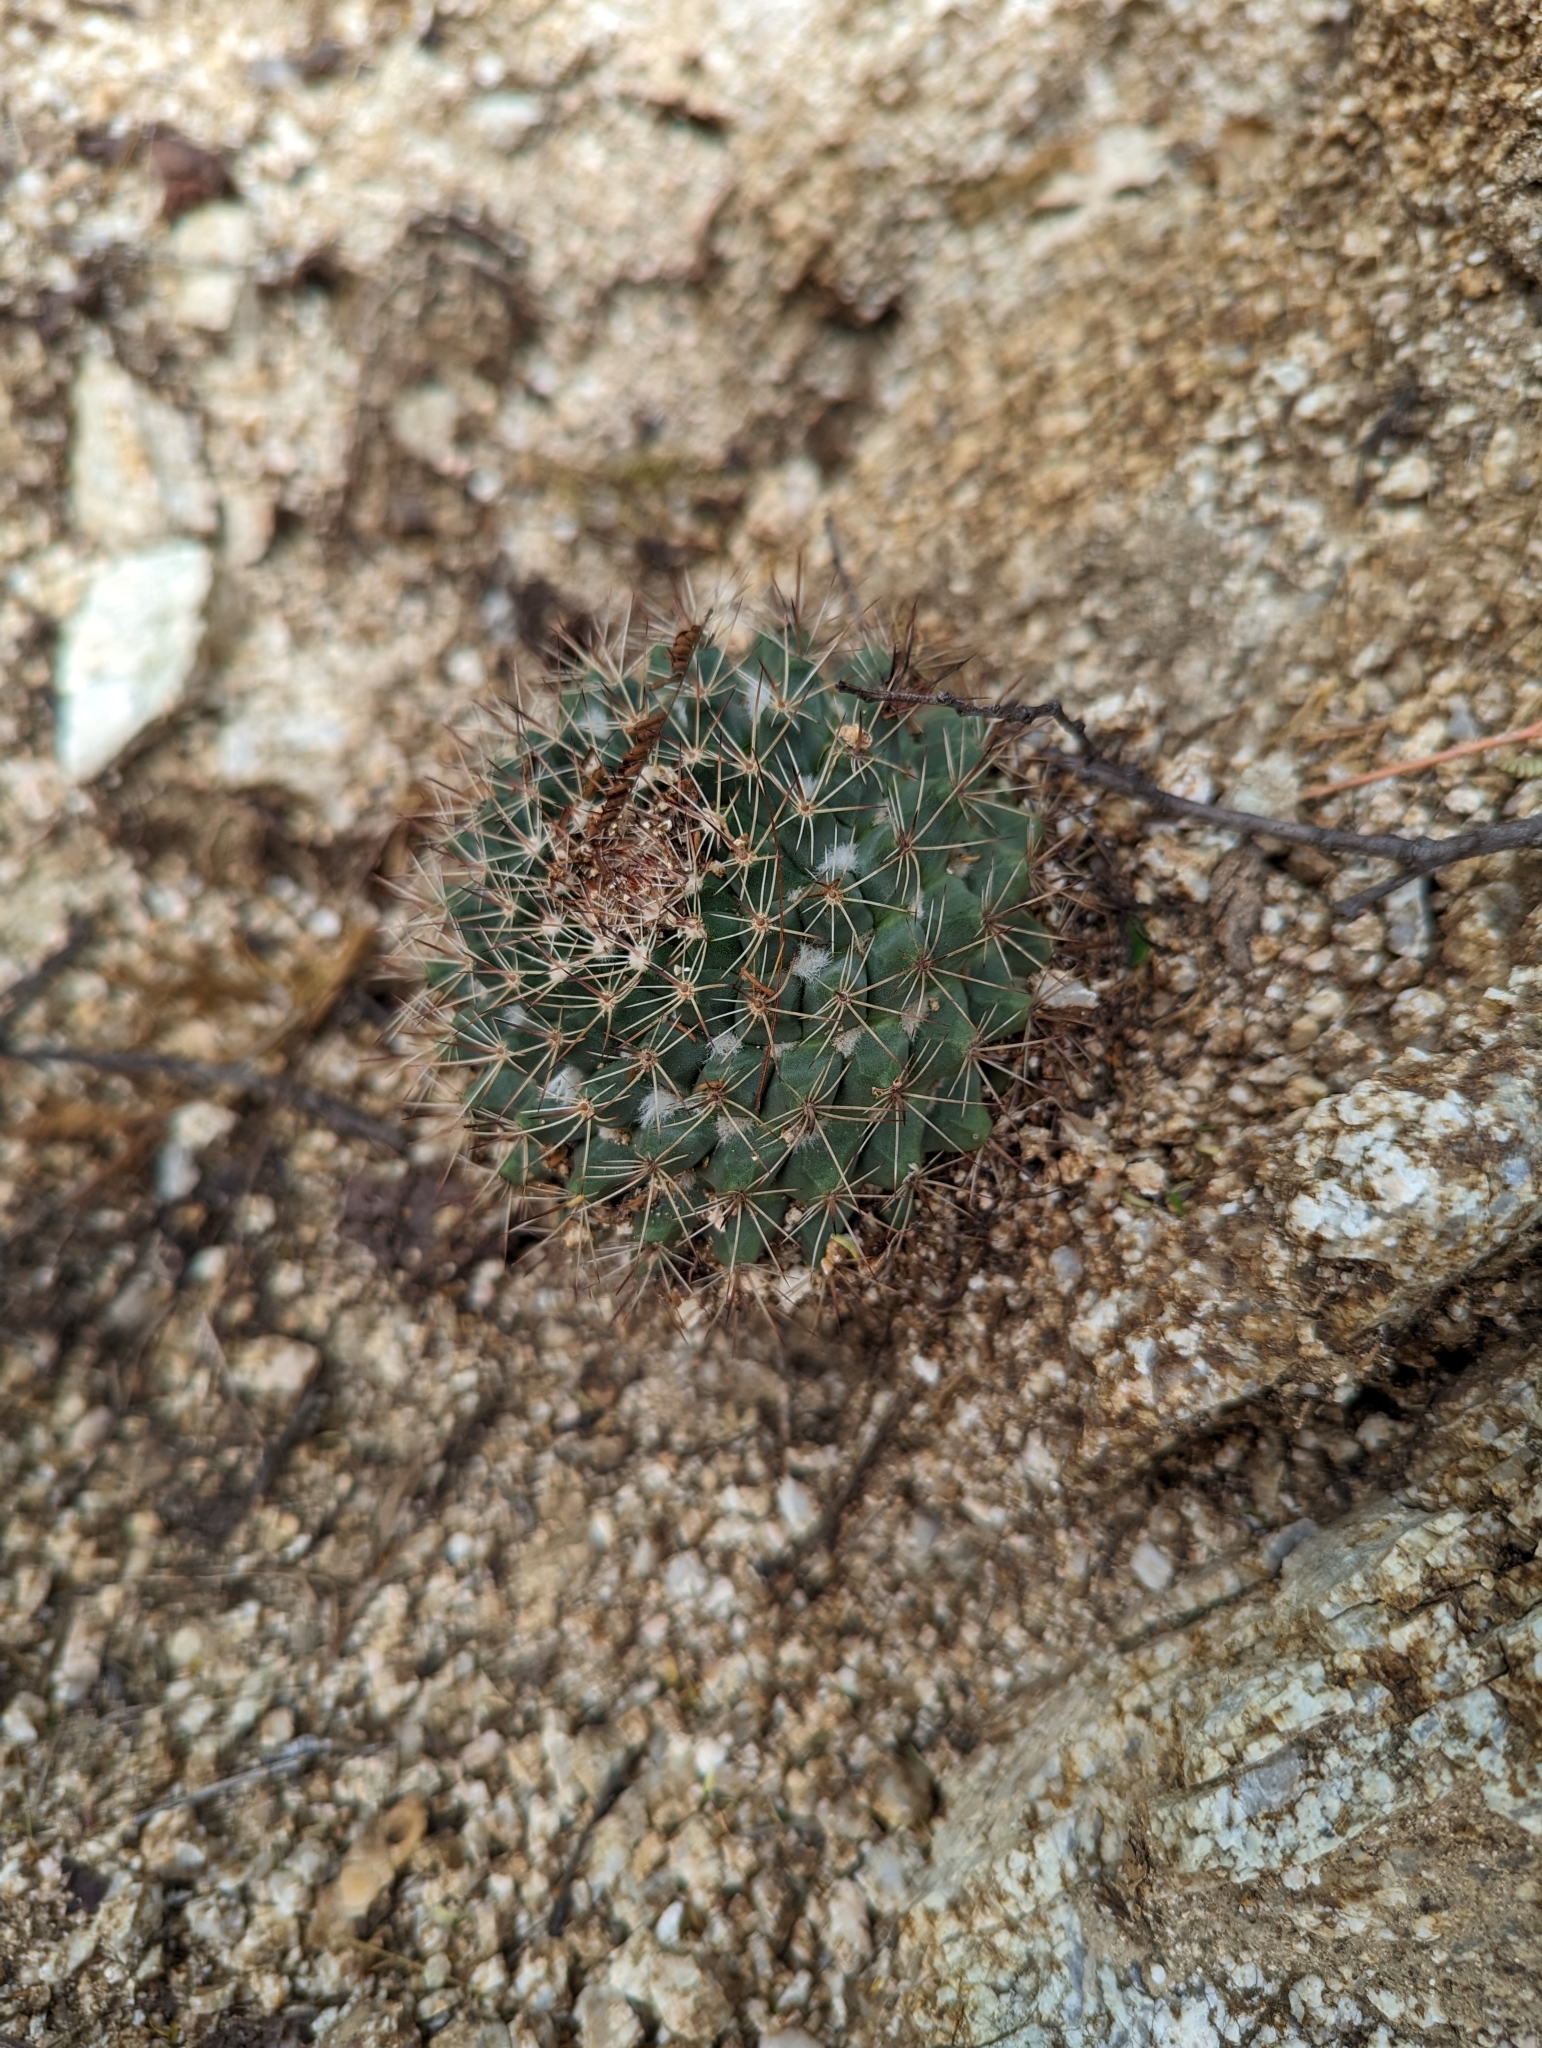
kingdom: Plantae
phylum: Tracheophyta
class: Magnoliopsida
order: Caryophyllales
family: Cactaceae
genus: Mammillaria
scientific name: Mammillaria petrophila
